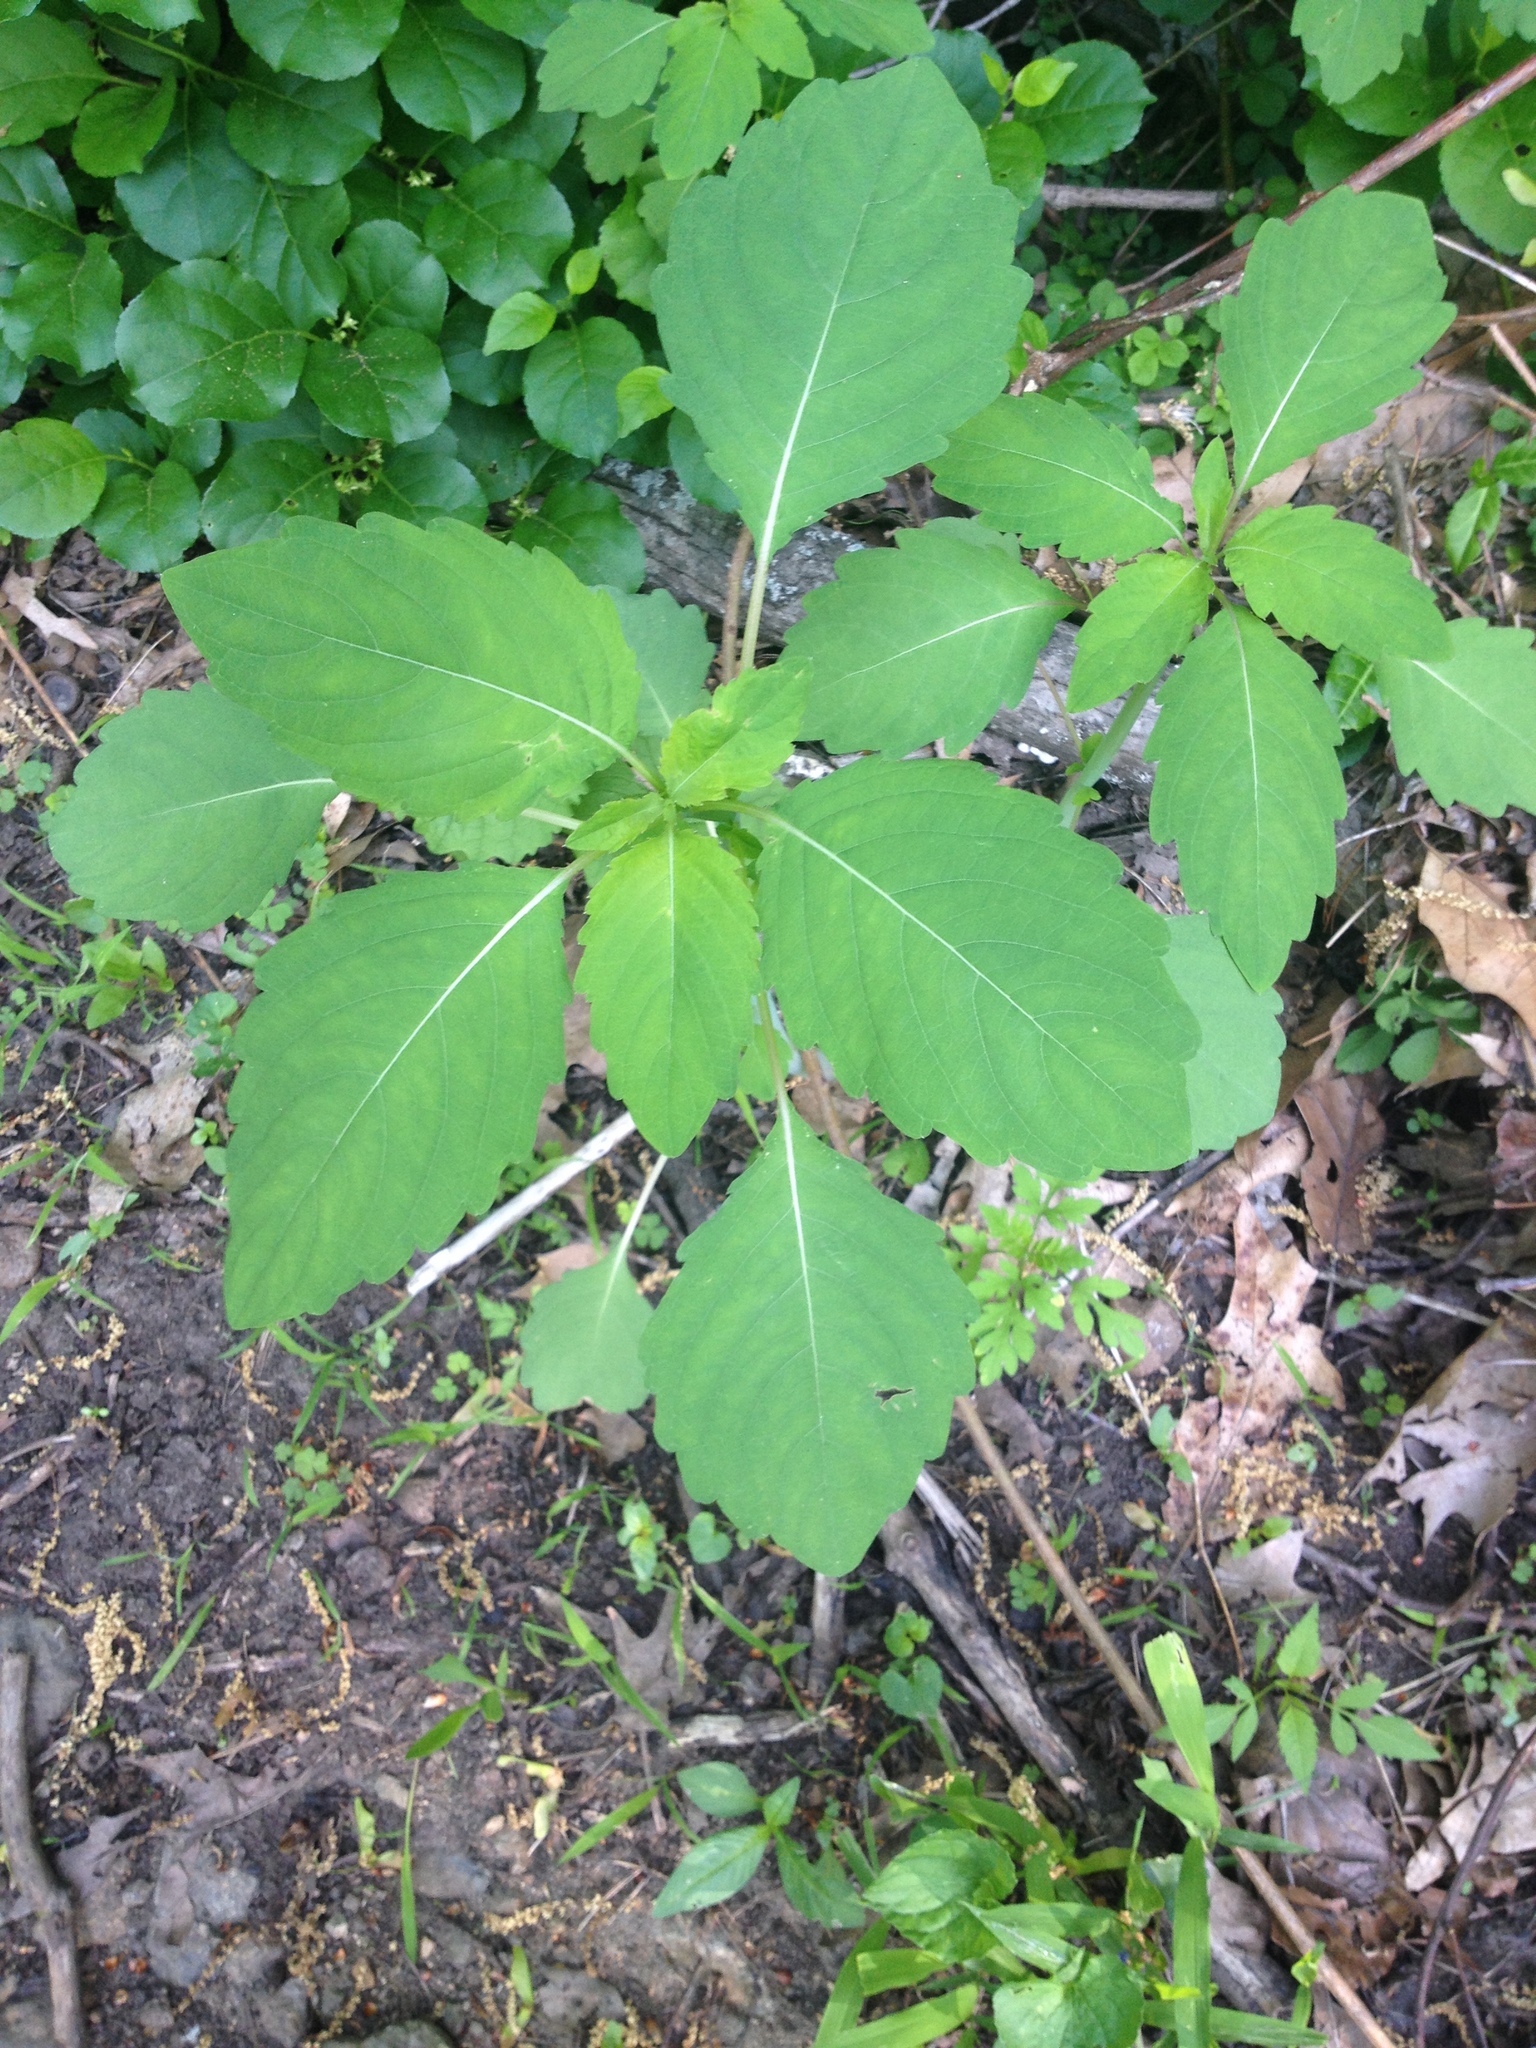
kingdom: Plantae
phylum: Tracheophyta
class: Magnoliopsida
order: Ericales
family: Balsaminaceae
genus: Impatiens
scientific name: Impatiens capensis
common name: Orange balsam
